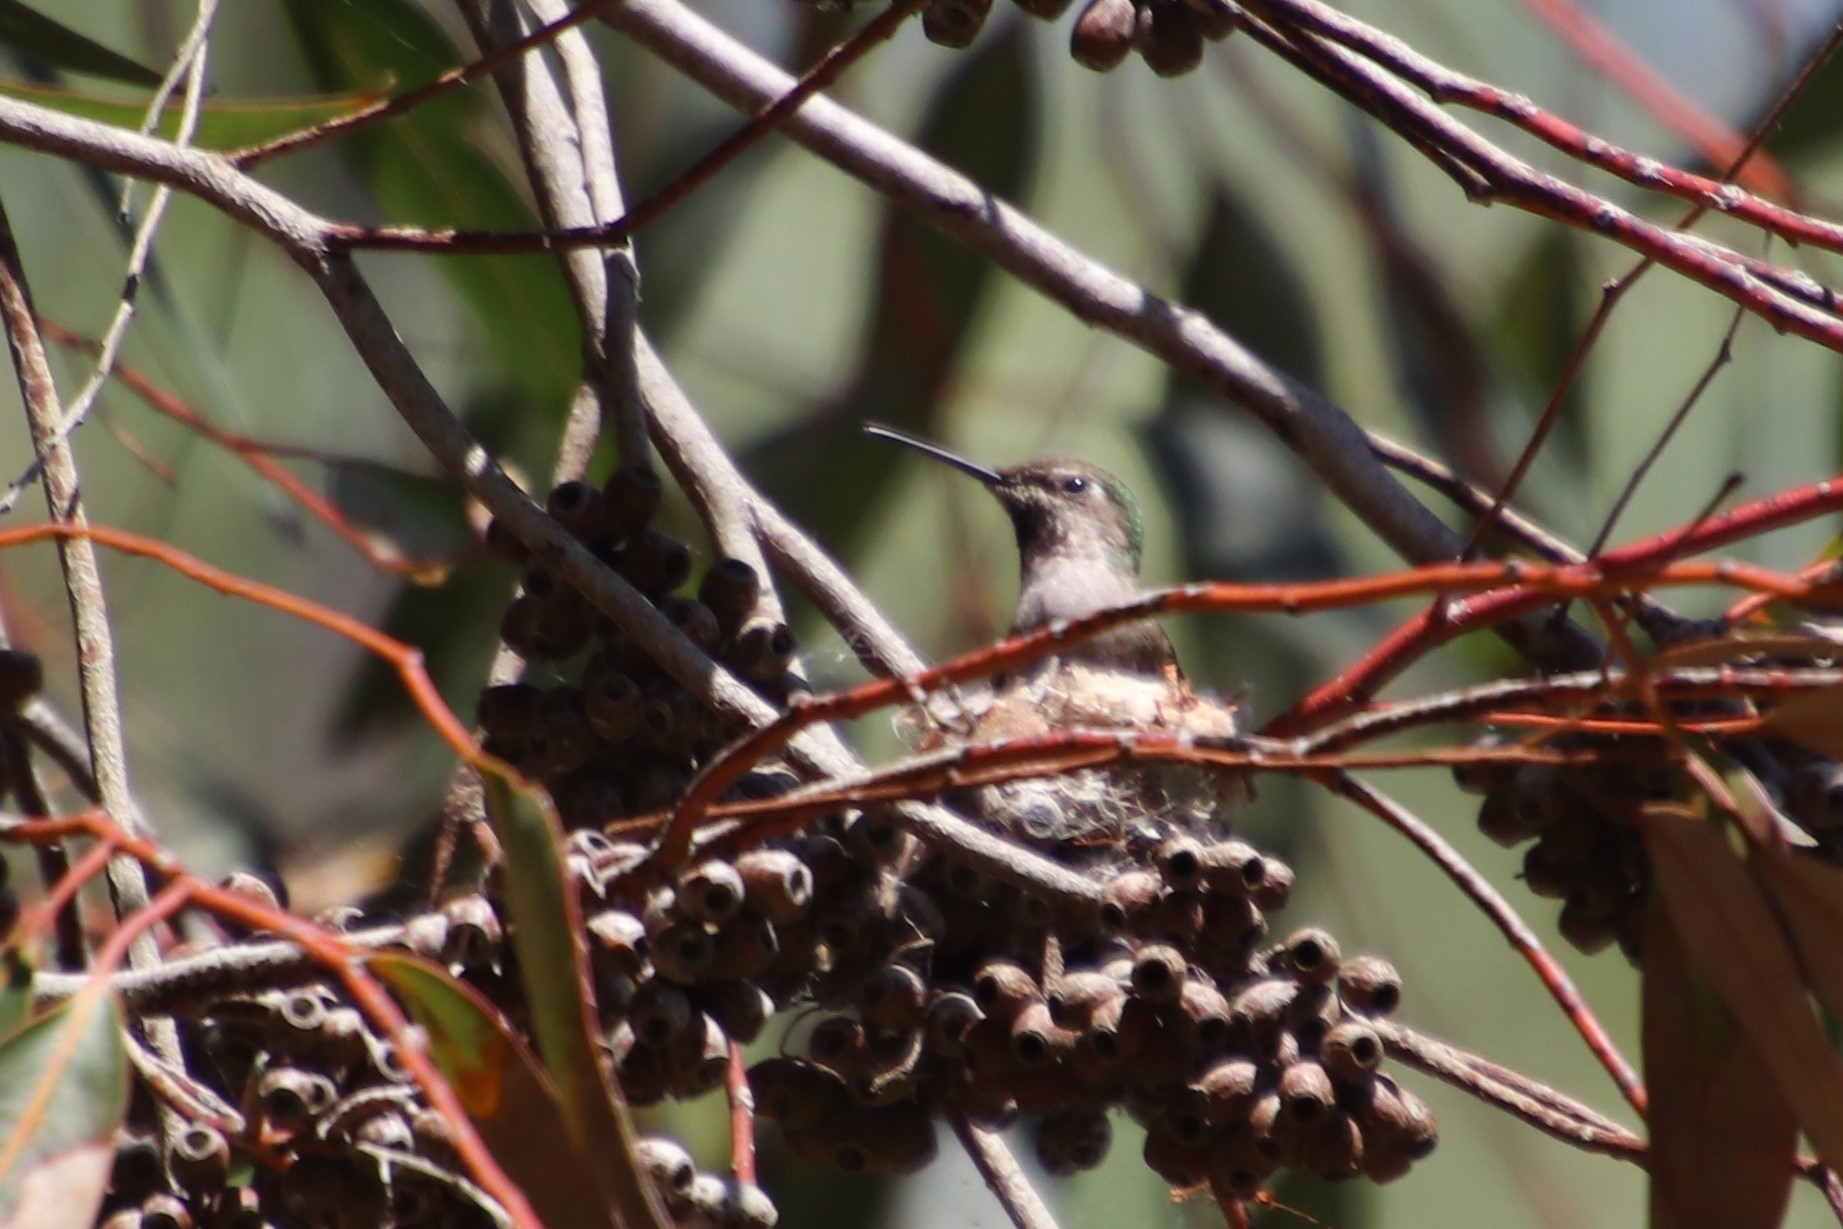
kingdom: Animalia
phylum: Chordata
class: Aves
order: Apodiformes
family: Trochilidae
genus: Calypte
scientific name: Calypte anna
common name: Anna's hummingbird
